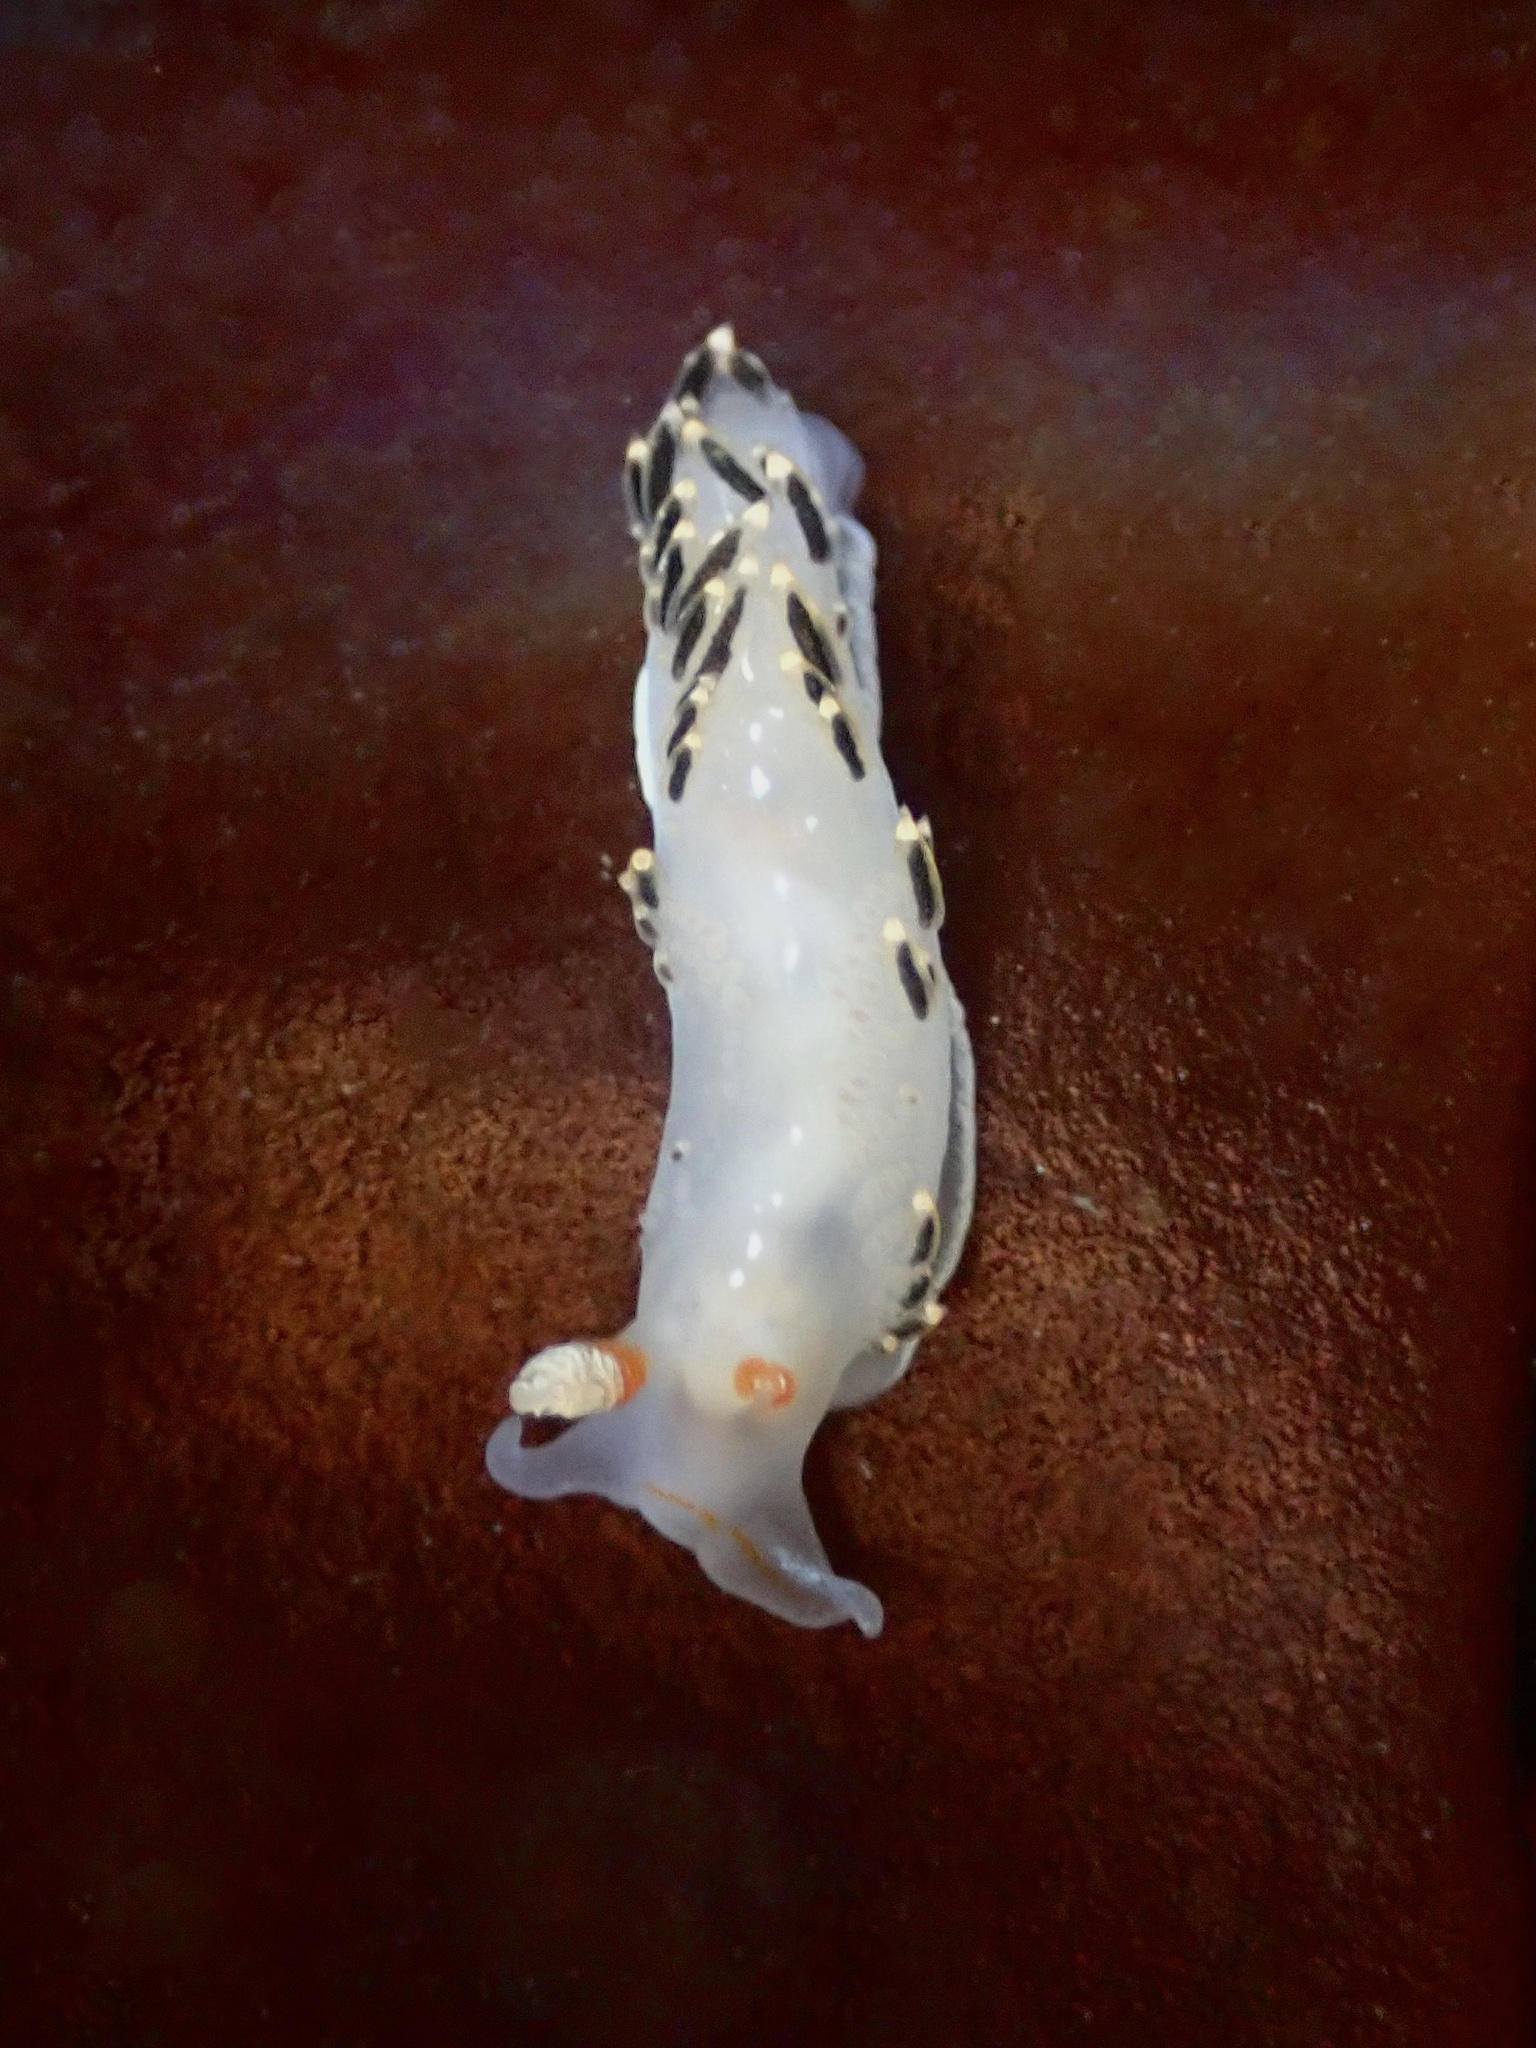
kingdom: Animalia
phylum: Mollusca
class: Gastropoda
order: Nudibranchia
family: Facelinidae
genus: Phidiana
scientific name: Phidiana hiltoni
